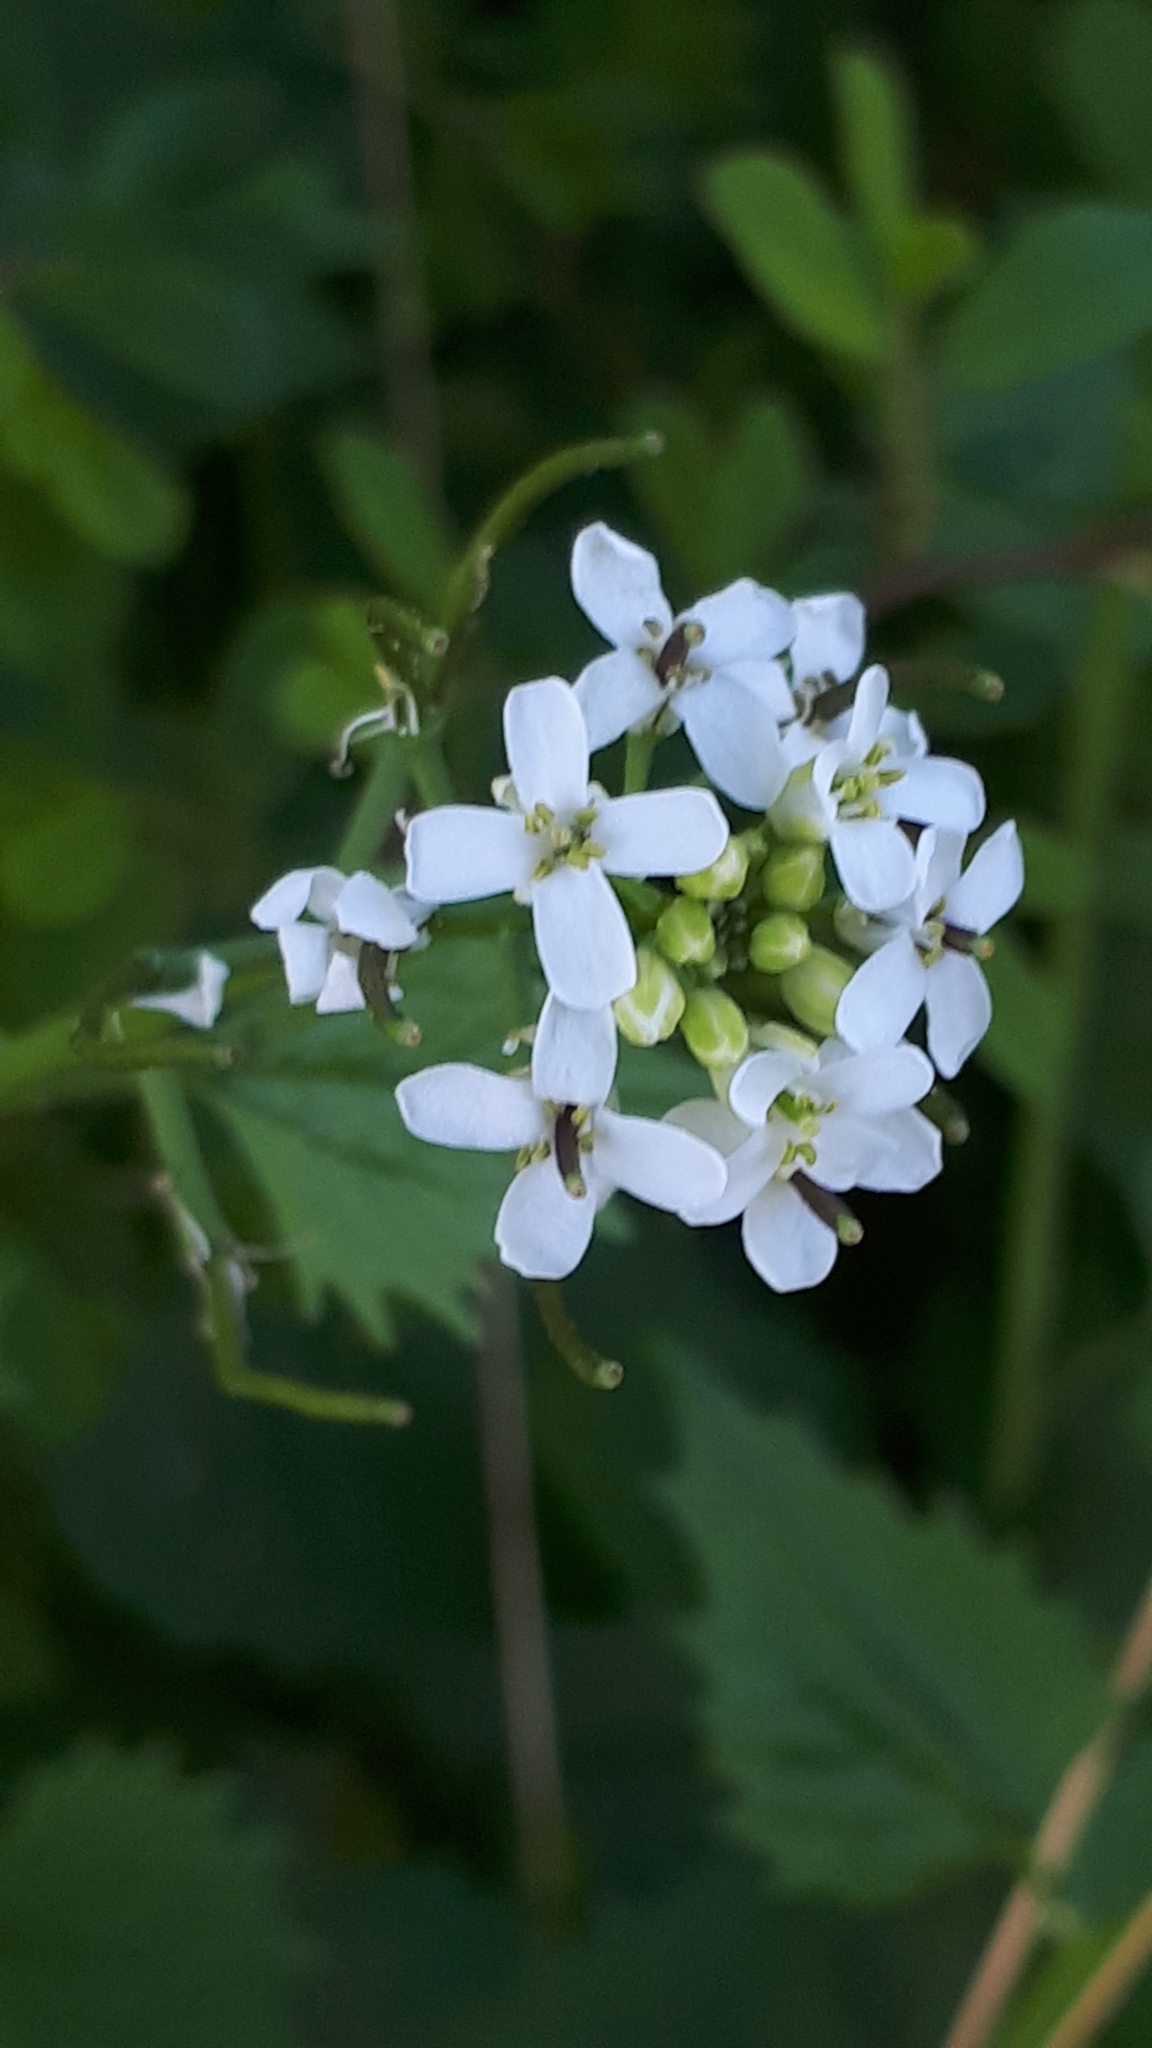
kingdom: Plantae
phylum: Tracheophyta
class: Magnoliopsida
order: Brassicales
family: Brassicaceae
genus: Alliaria
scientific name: Alliaria petiolata
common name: Garlic mustard
